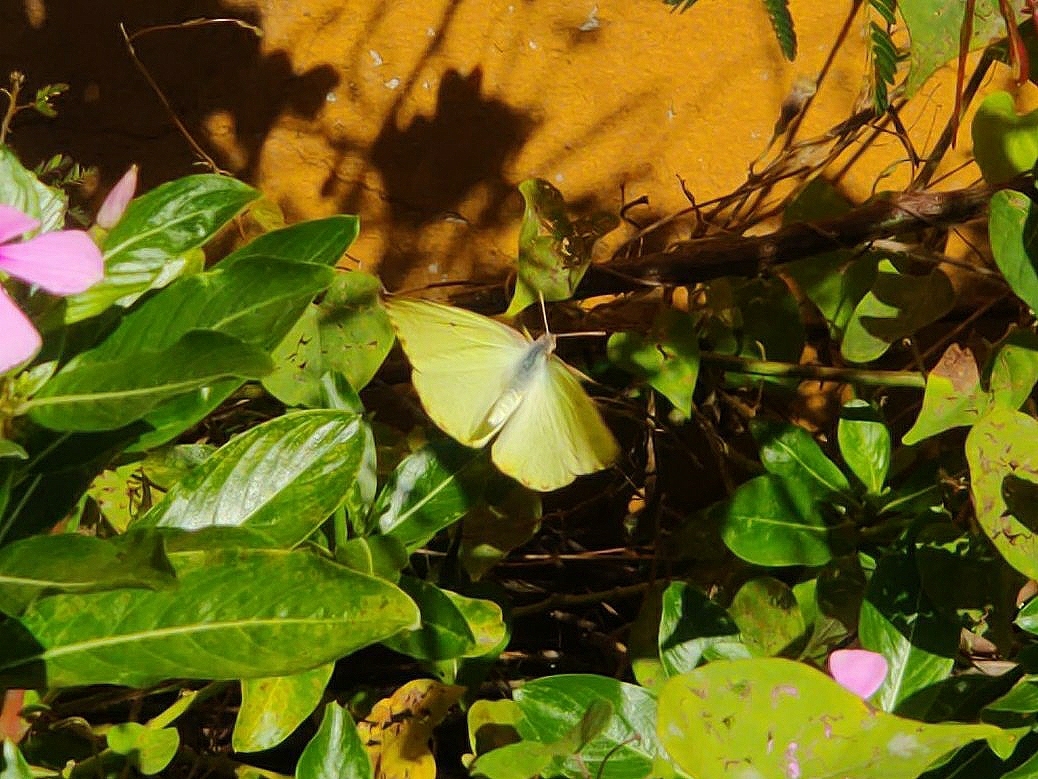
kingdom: Animalia
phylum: Arthropoda
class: Insecta
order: Lepidoptera
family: Pieridae
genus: Catopsilia
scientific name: Catopsilia florella
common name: African migrant
